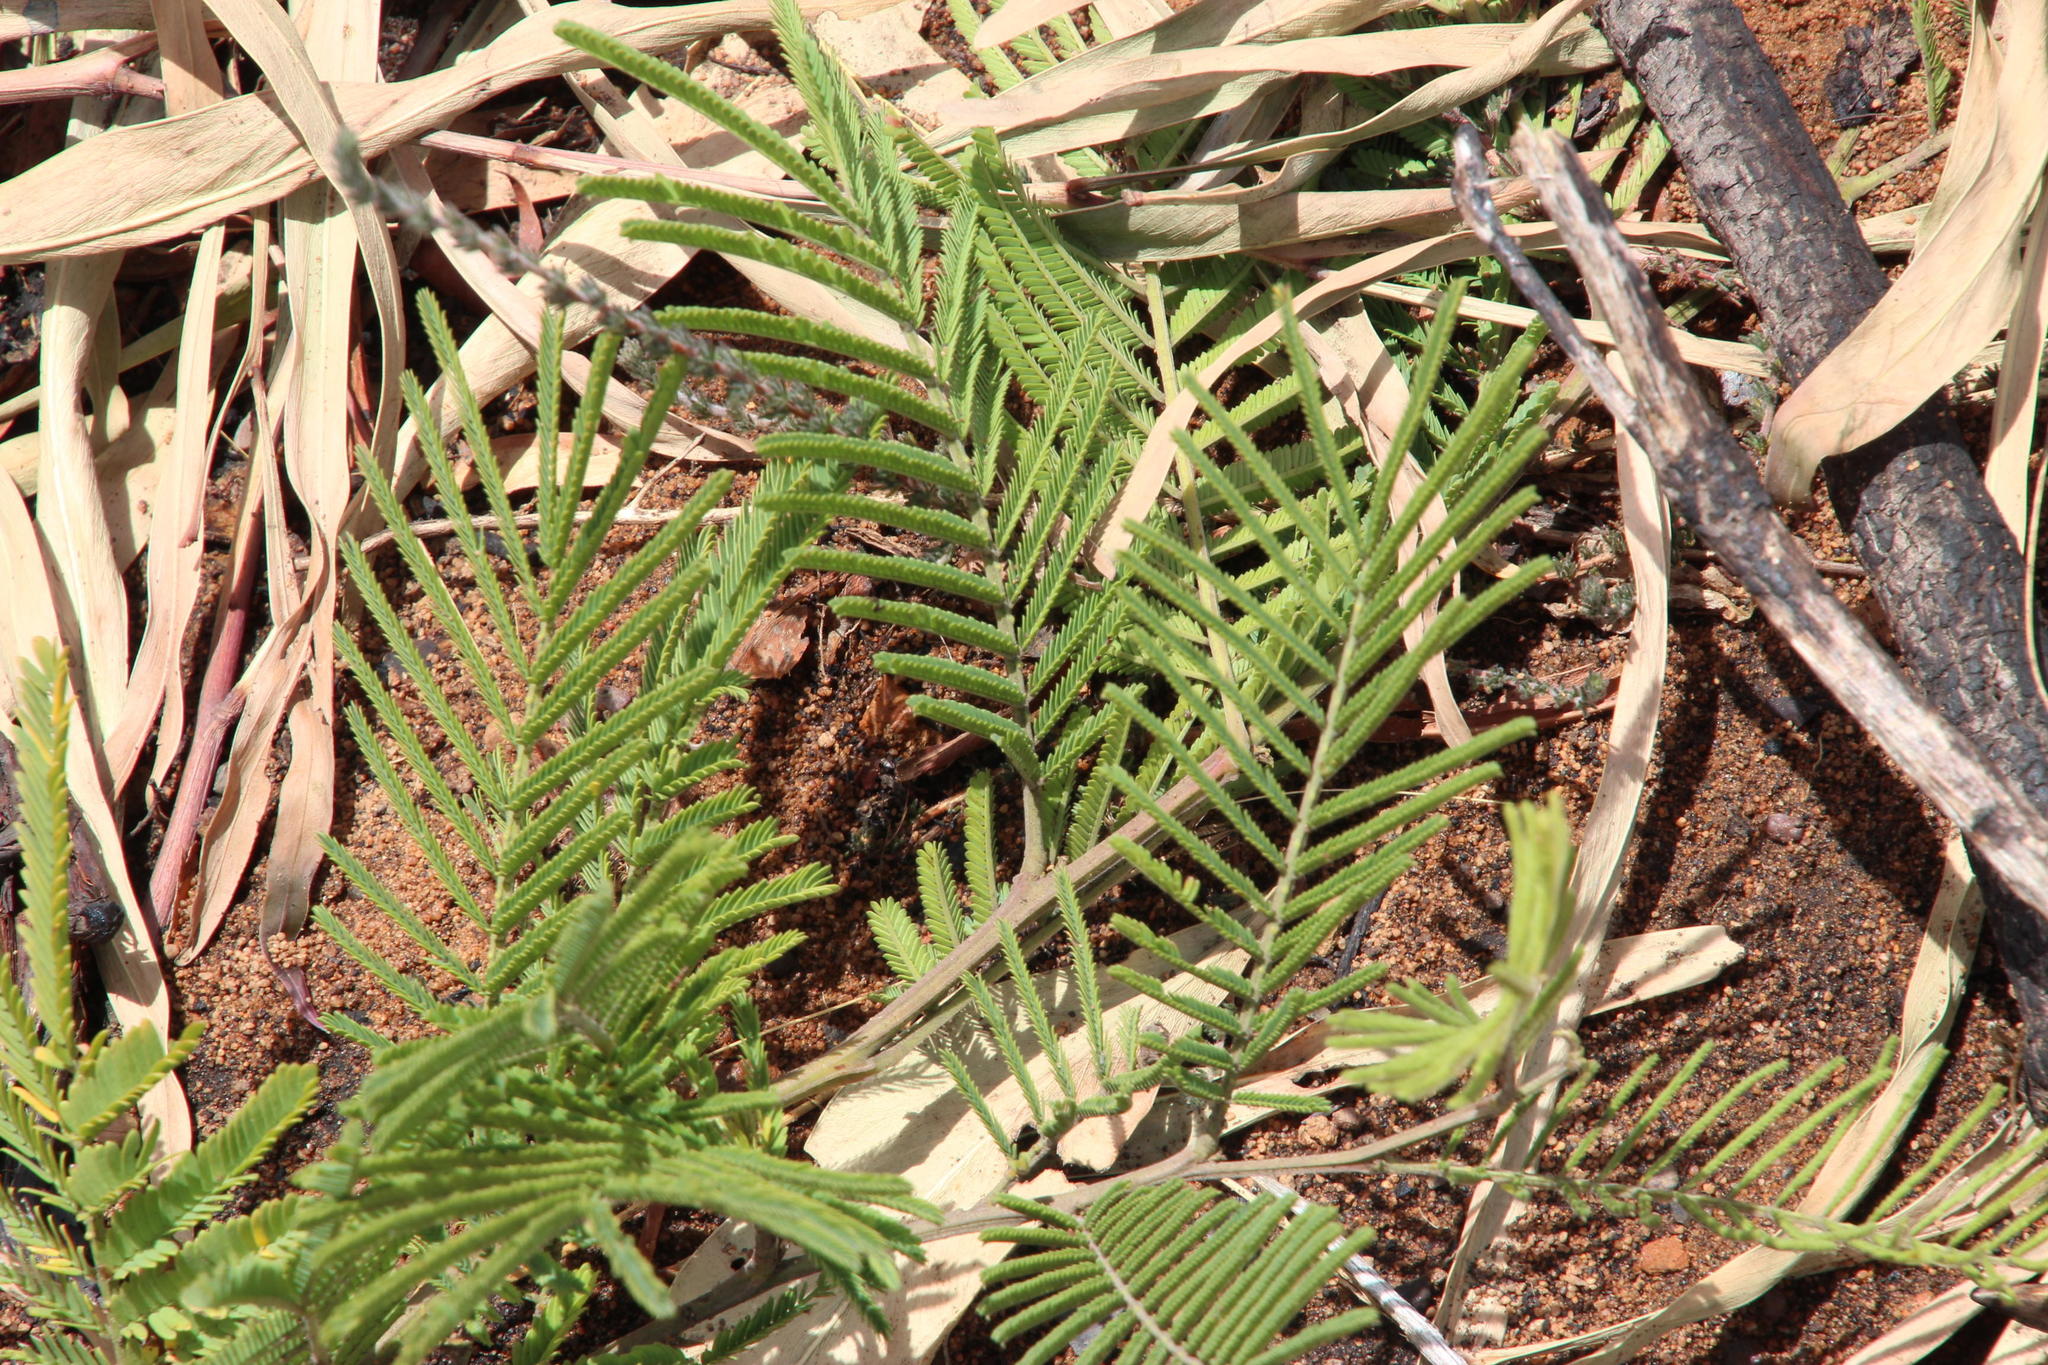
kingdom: Plantae
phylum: Tracheophyta
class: Magnoliopsida
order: Fabales
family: Fabaceae
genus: Acacia
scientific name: Acacia mearnsii
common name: Black wattle
